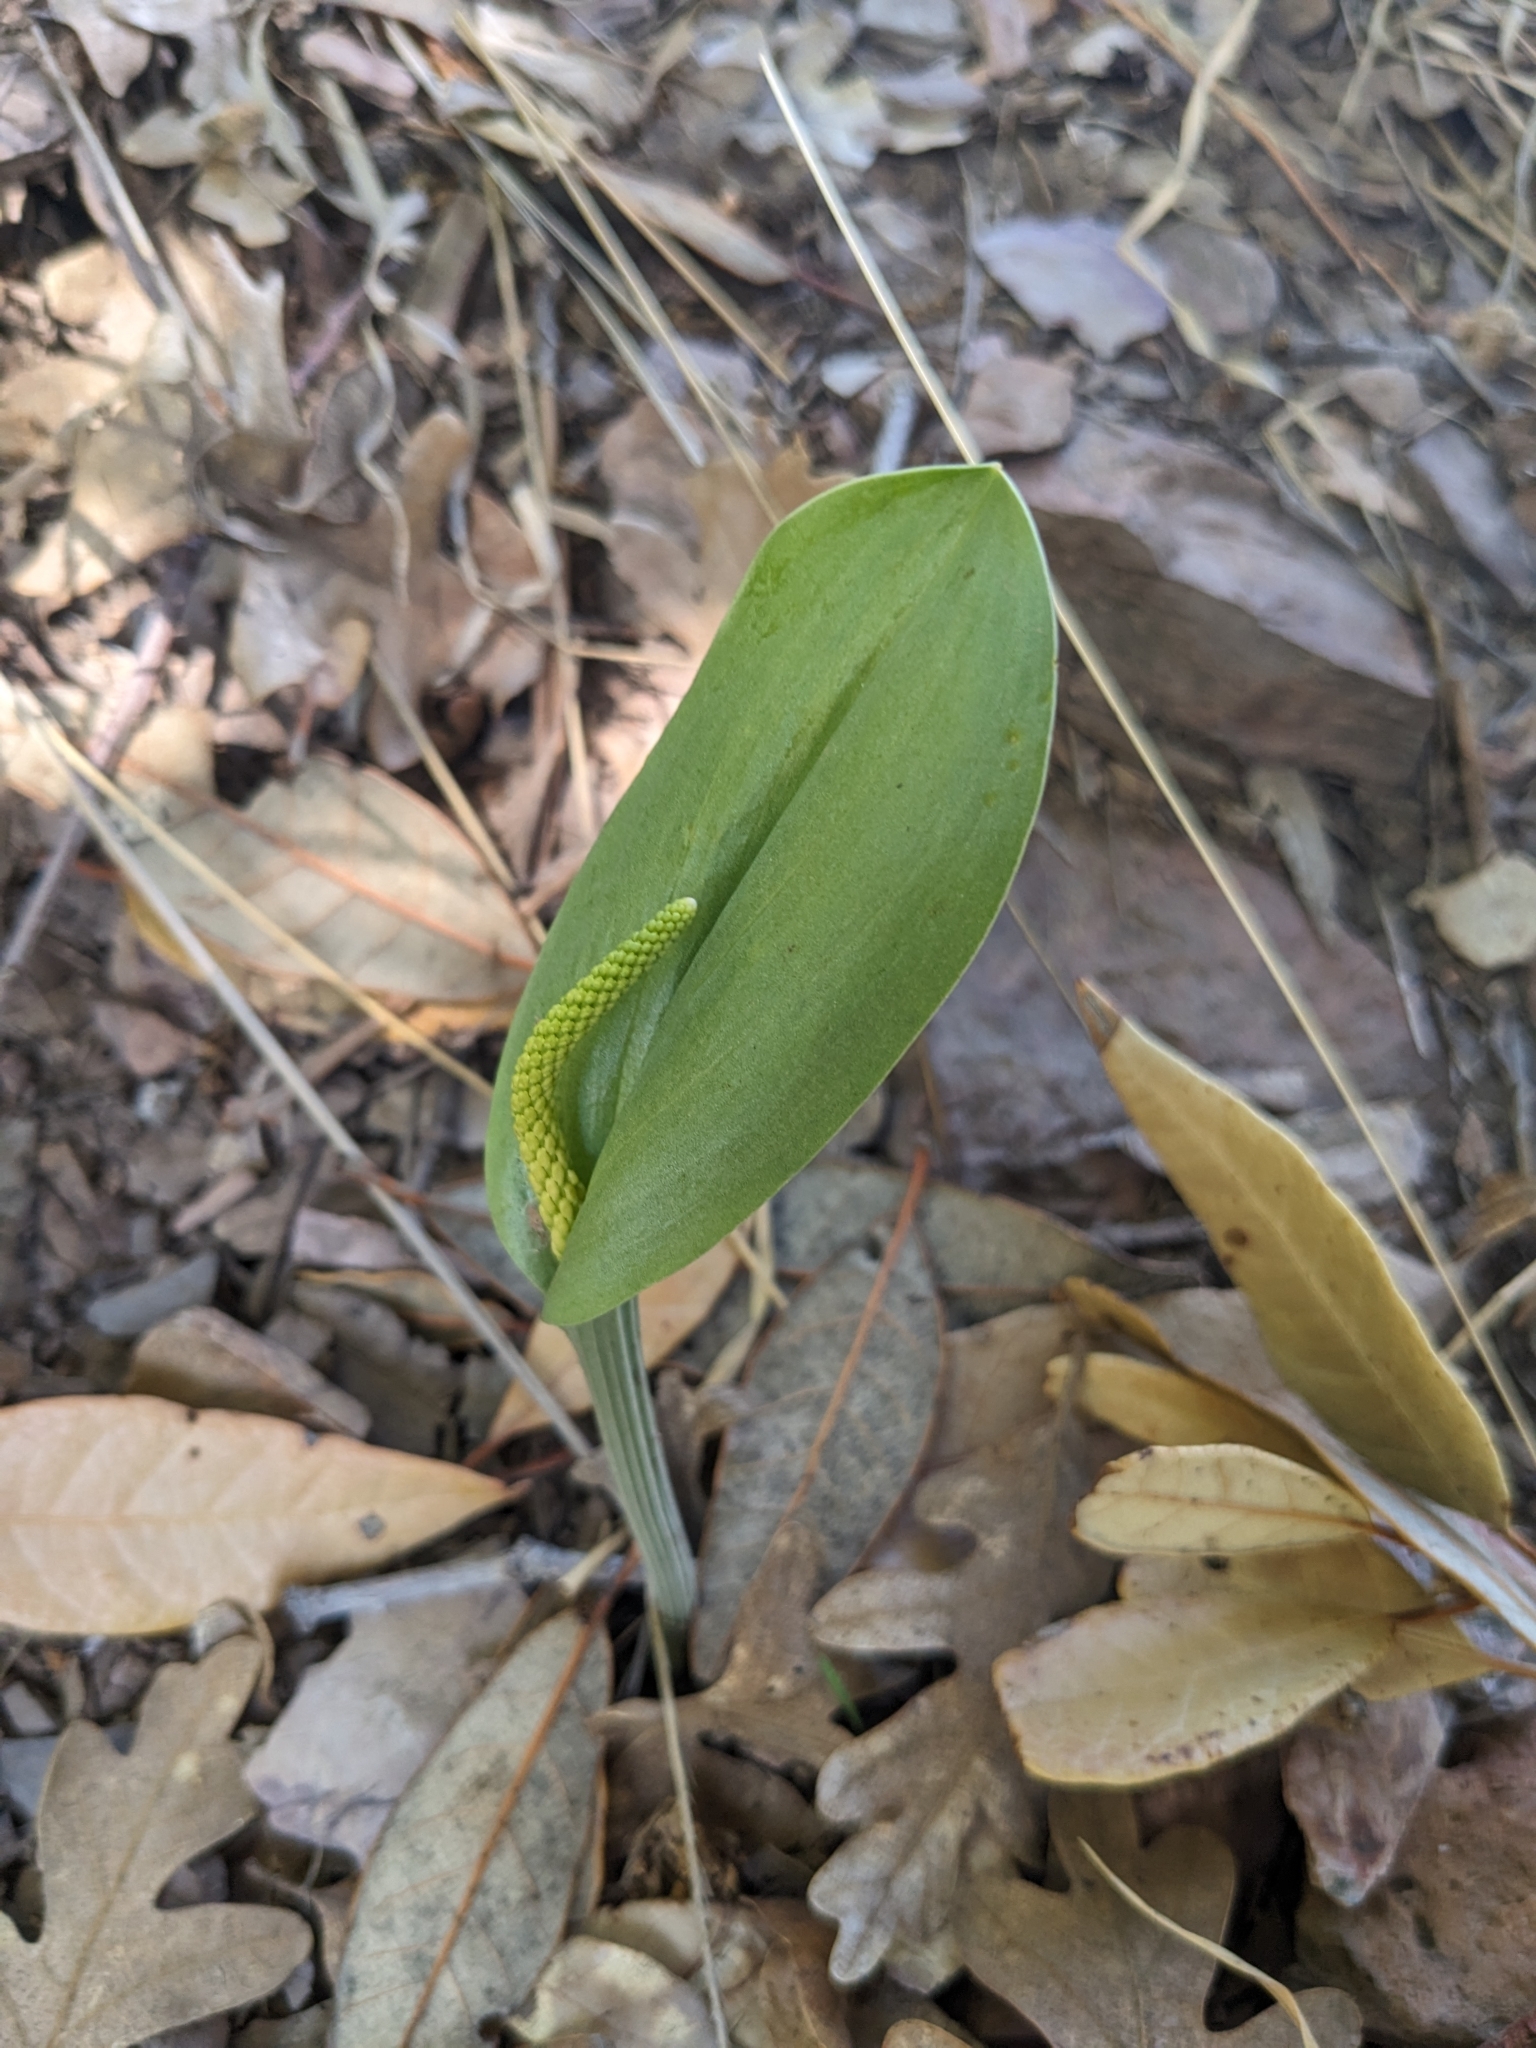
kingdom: Plantae
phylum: Tracheophyta
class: Liliopsida
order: Asparagales
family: Orchidaceae
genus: Malaxis
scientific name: Malaxis macrostachya
